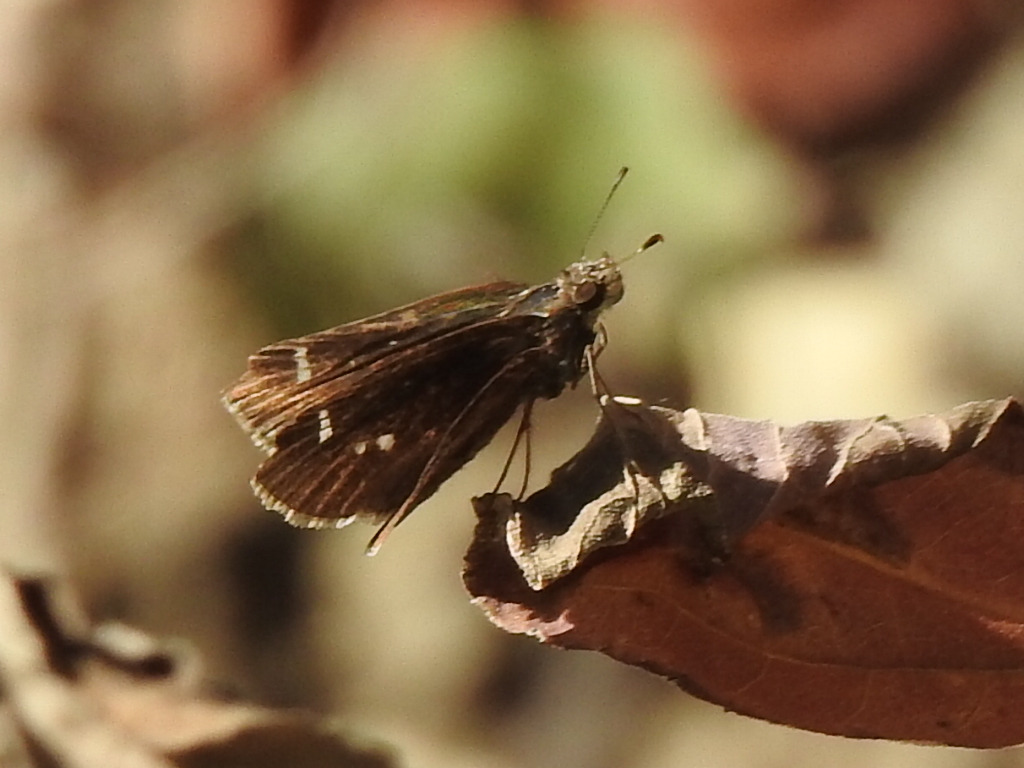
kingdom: Animalia
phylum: Arthropoda
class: Insecta
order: Lepidoptera
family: Hesperiidae
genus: Lerema
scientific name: Lerema accius
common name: Clouded skipper
